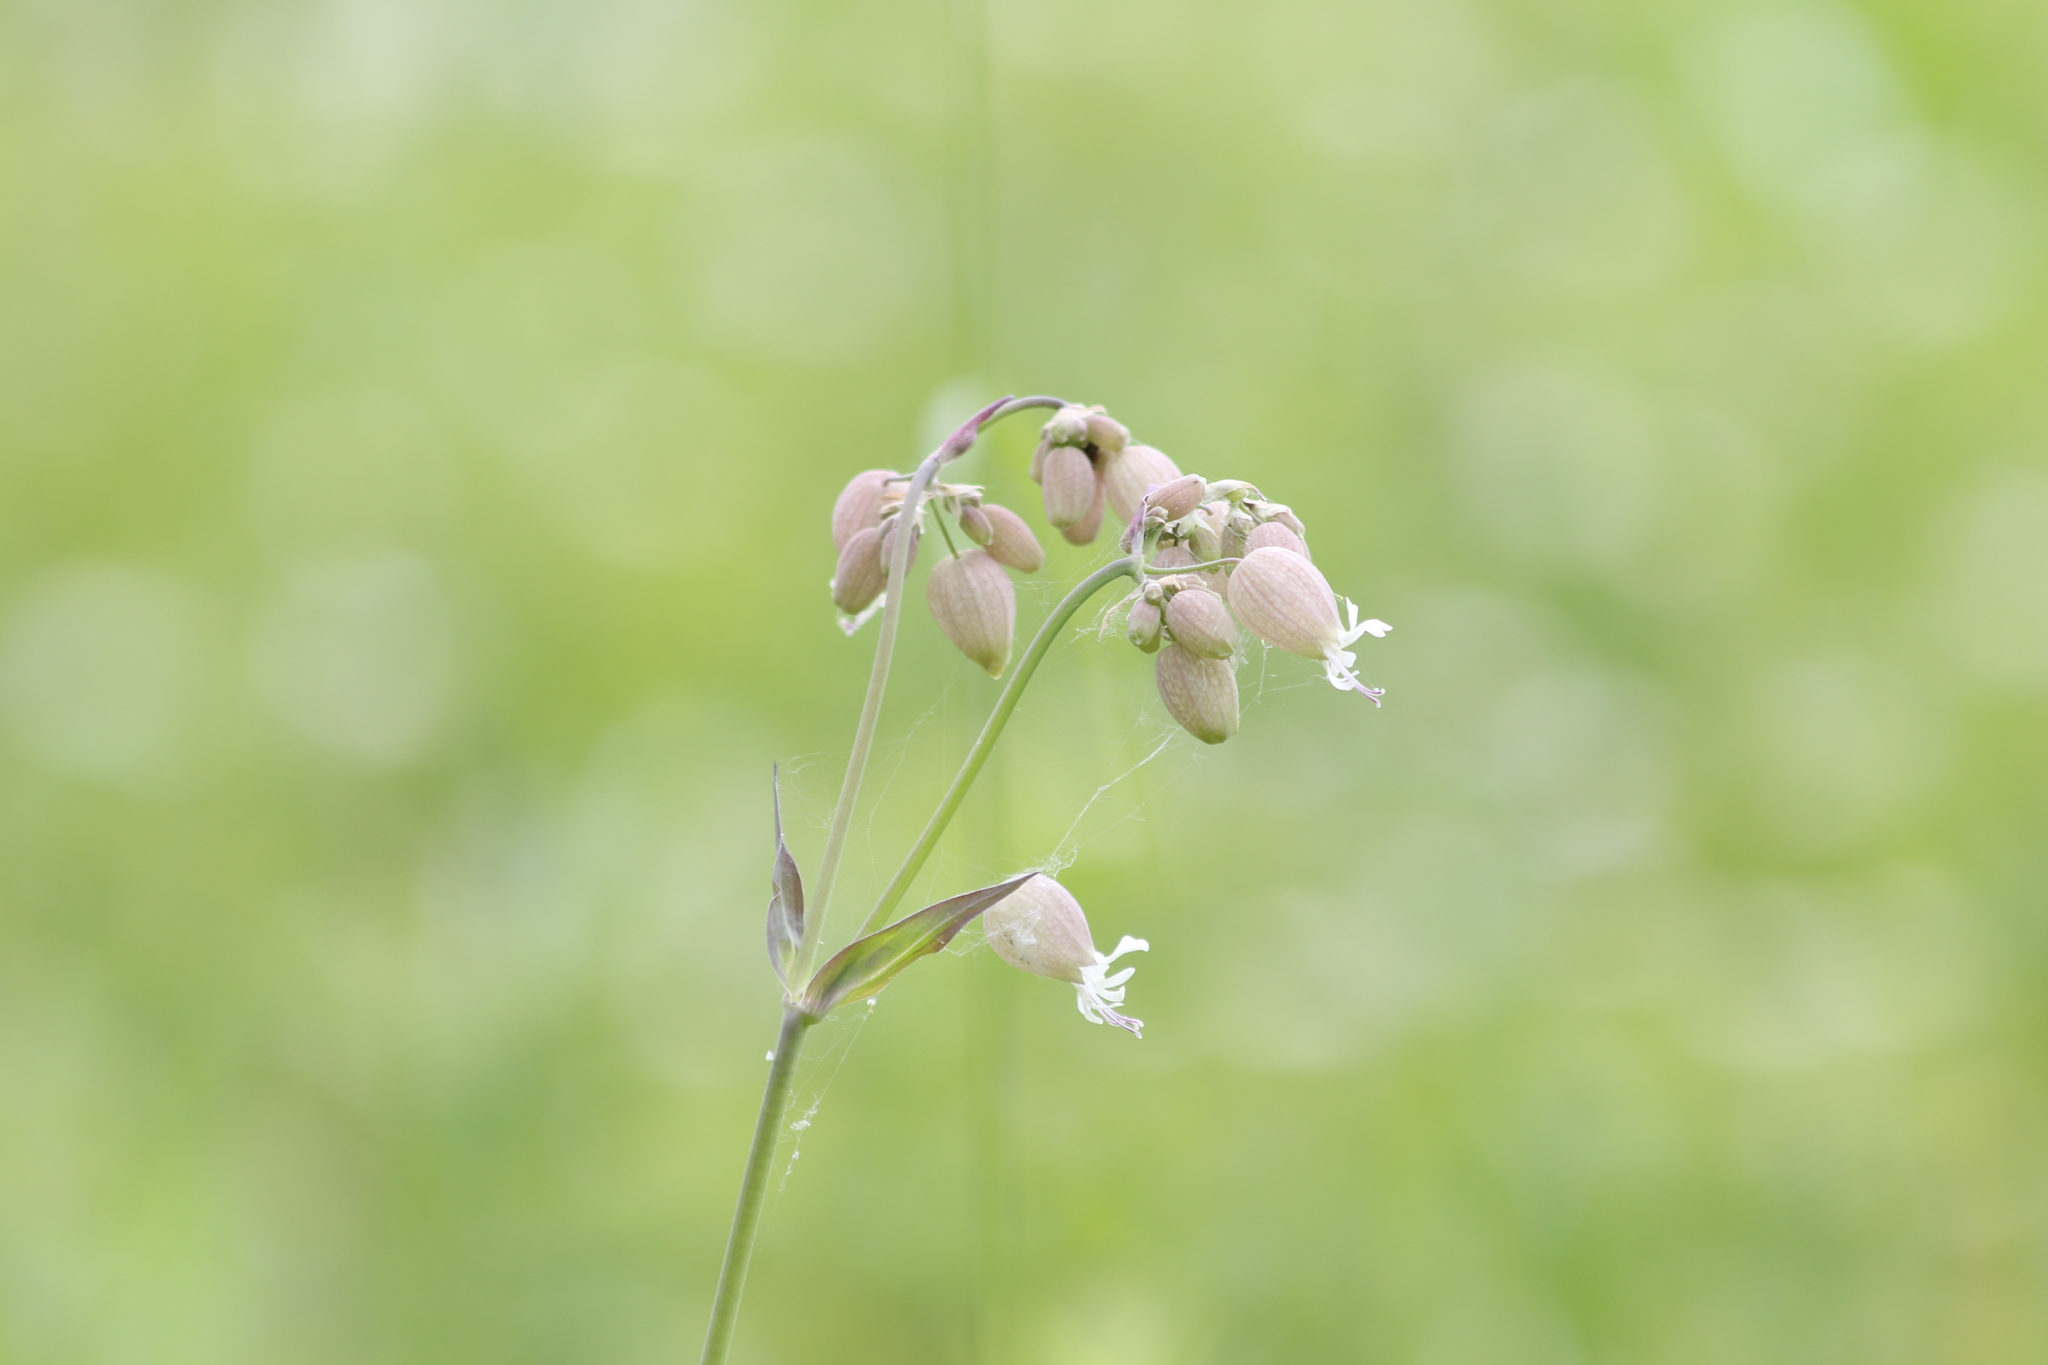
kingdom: Plantae
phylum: Tracheophyta
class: Magnoliopsida
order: Caryophyllales
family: Caryophyllaceae
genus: Silene
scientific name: Silene vulgaris
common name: Bladder campion
